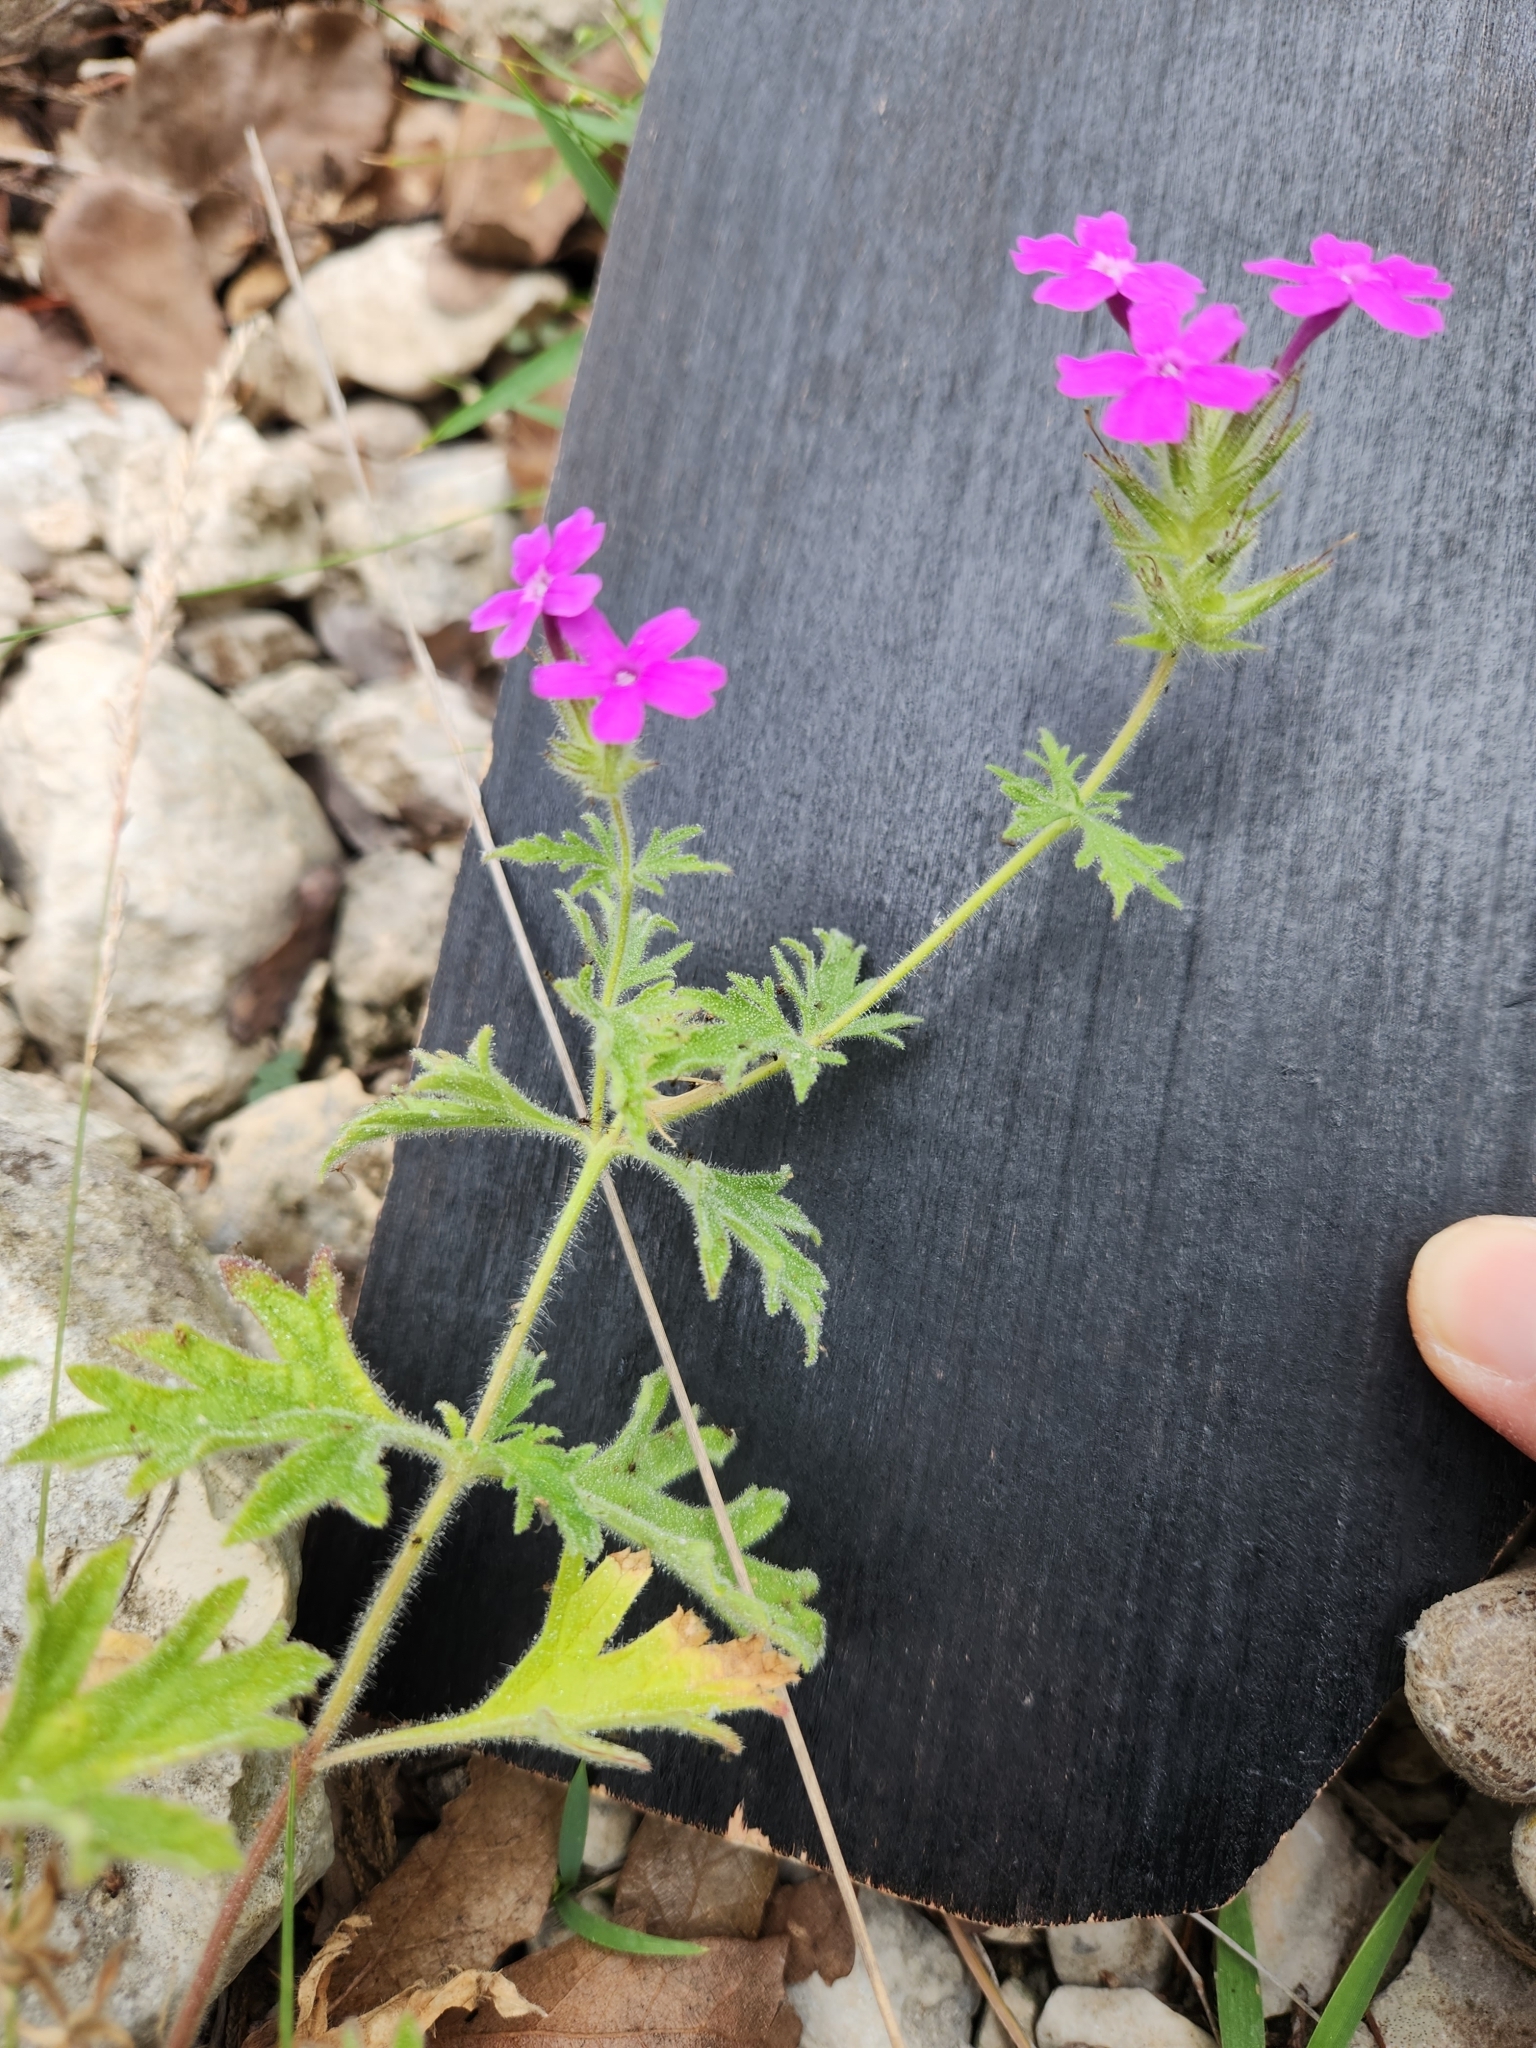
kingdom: Plantae
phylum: Tracheophyta
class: Magnoliopsida
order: Lamiales
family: Verbenaceae
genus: Verbena
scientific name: Verbena tumidula
